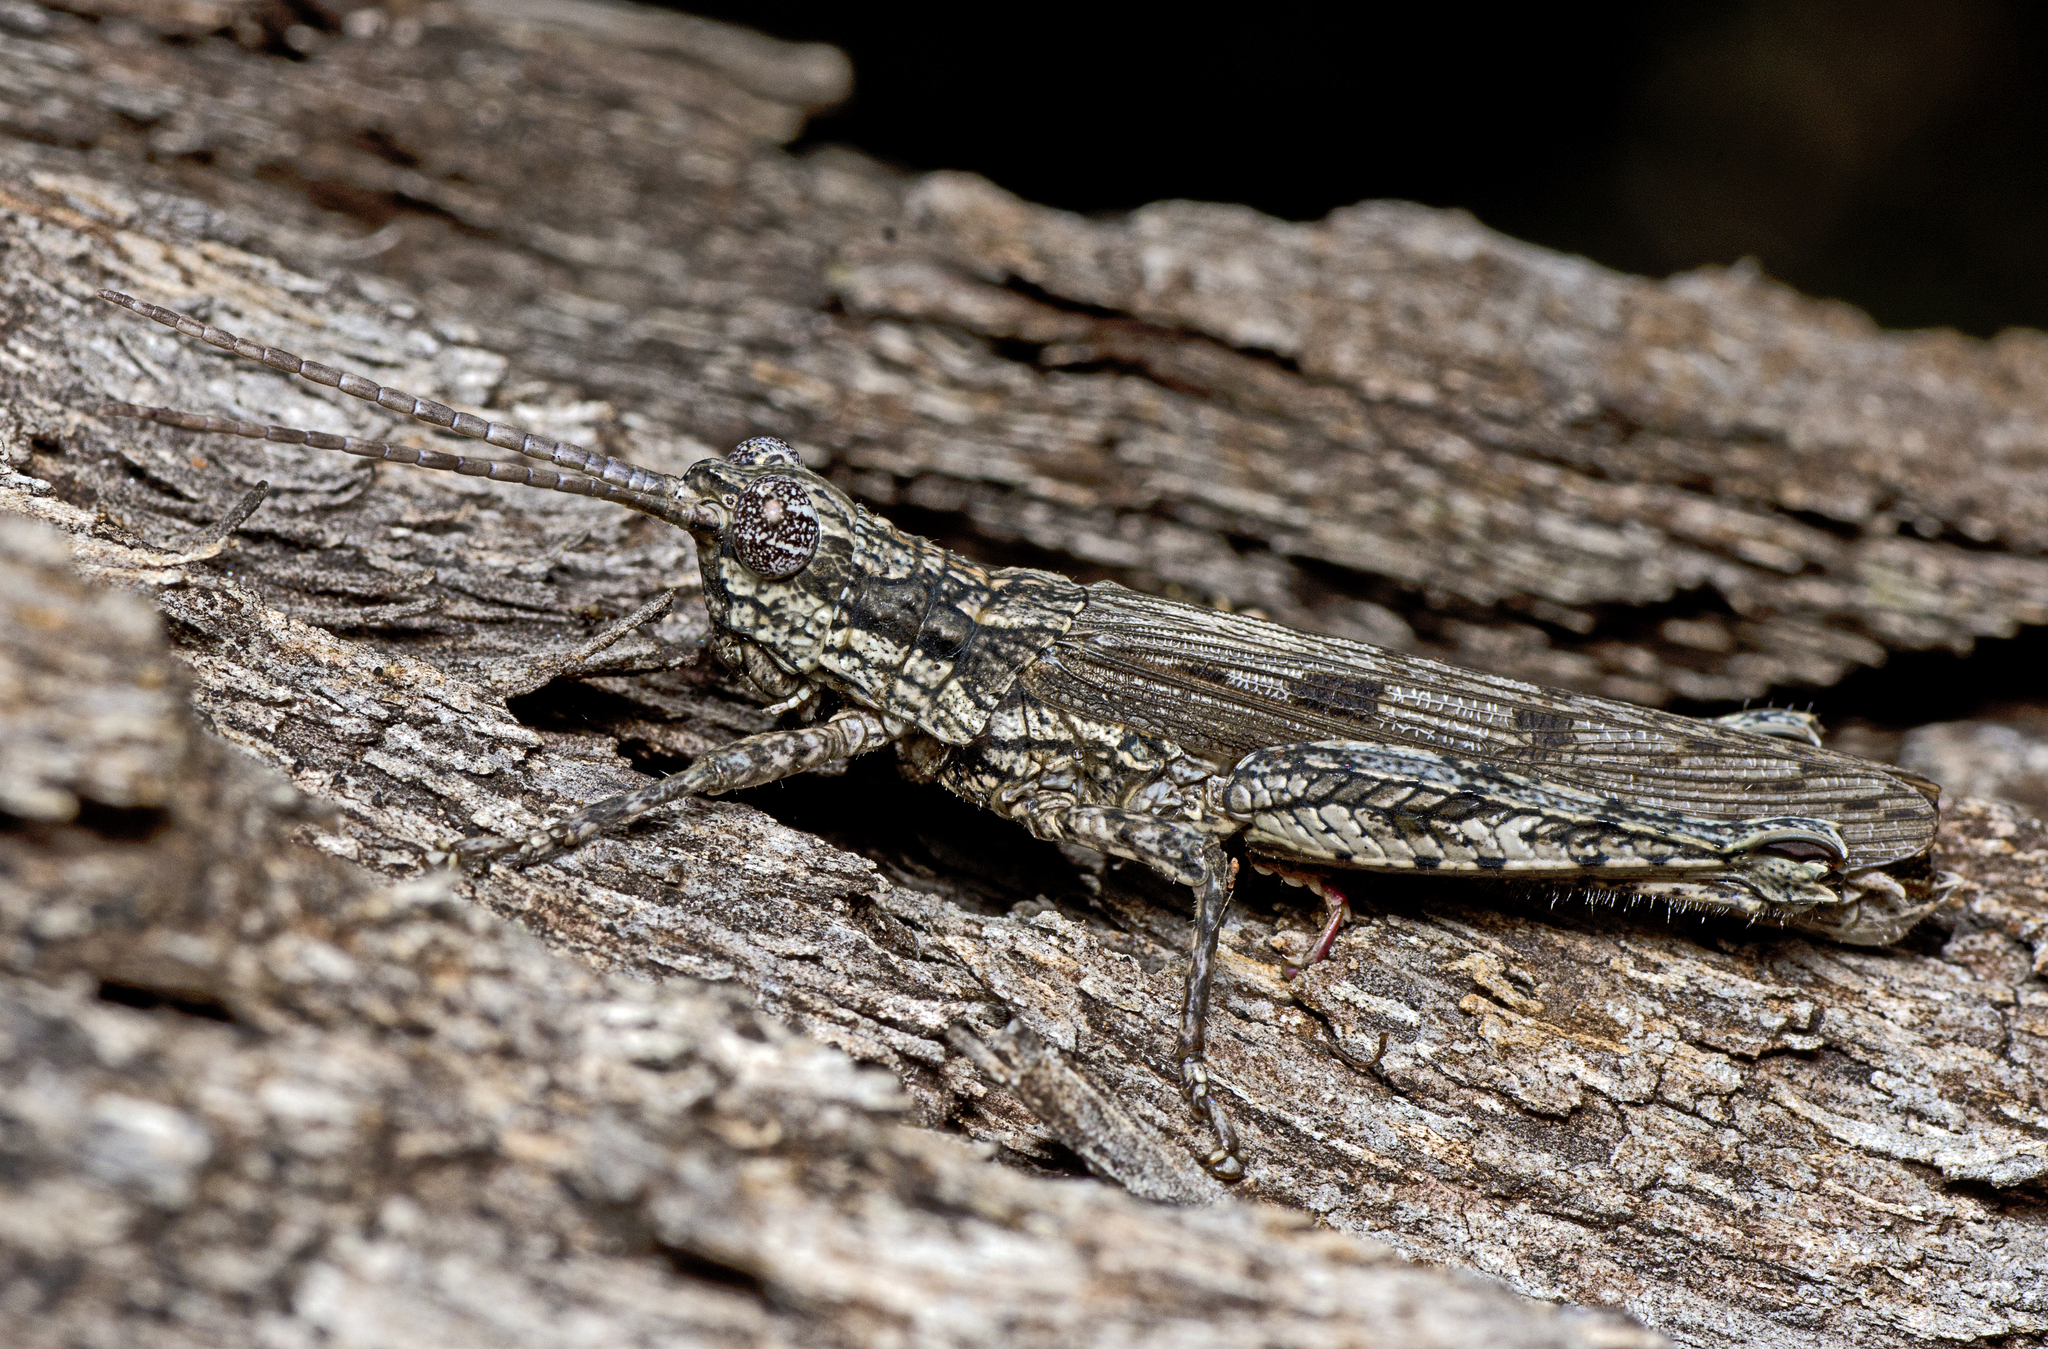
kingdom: Animalia
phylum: Arthropoda
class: Insecta
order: Orthoptera
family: Acrididae
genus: Adreppus
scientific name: Adreppus fallax
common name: Common adreppus
